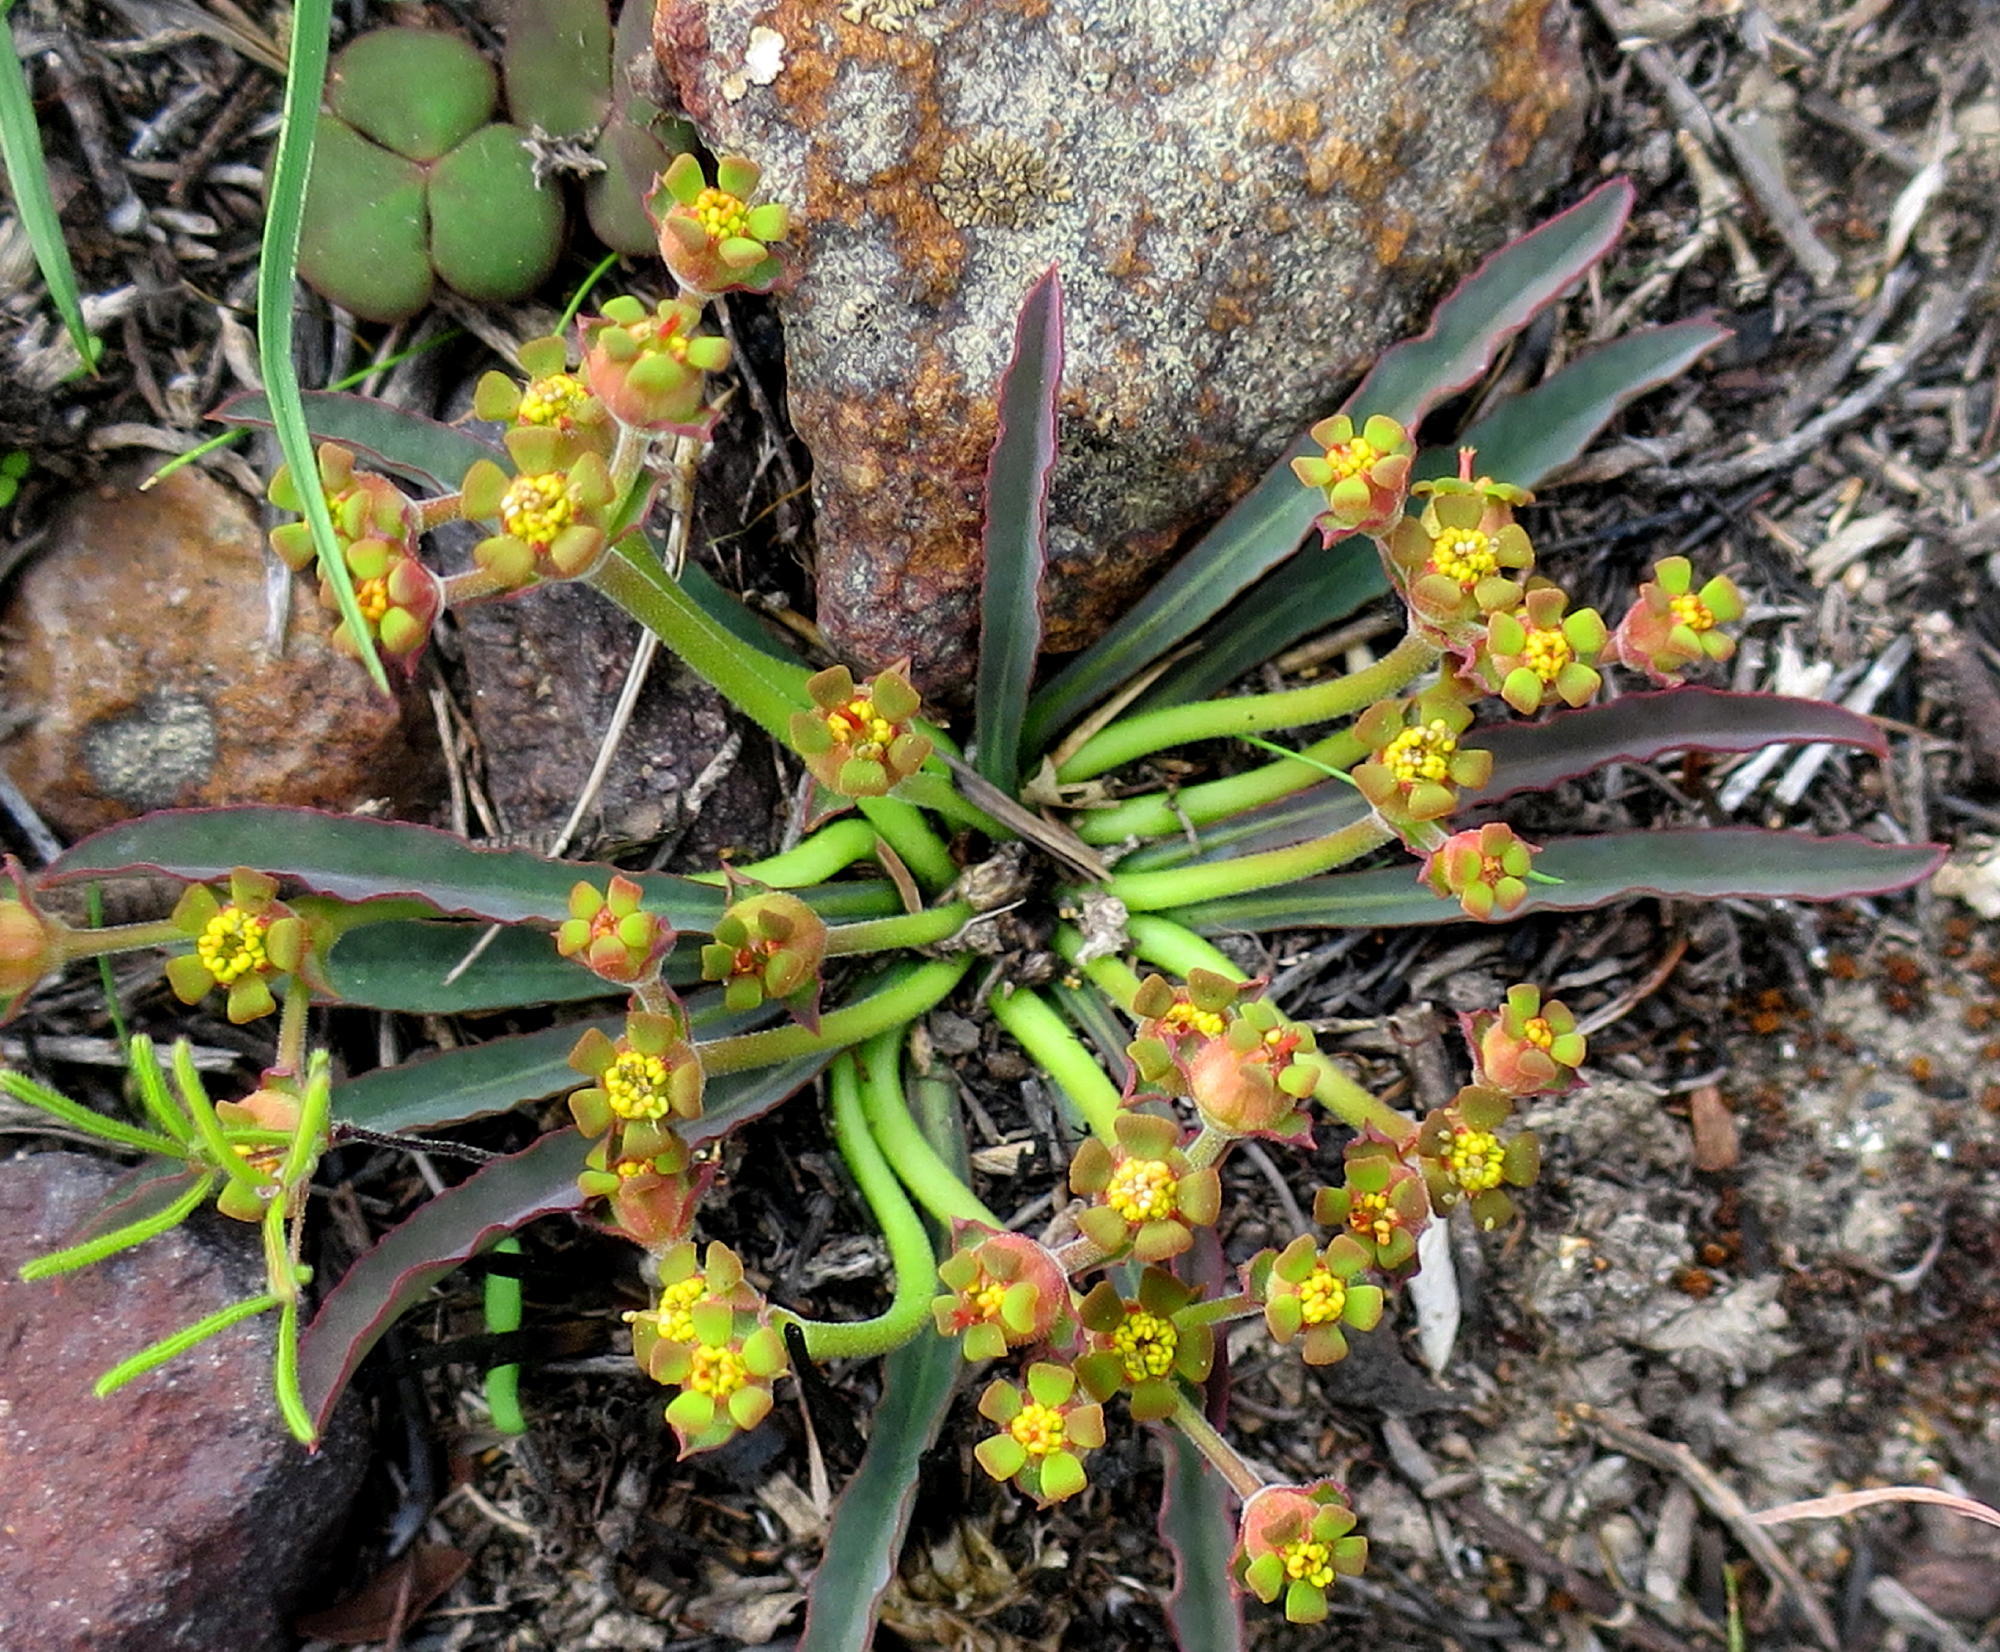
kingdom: Plantae
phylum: Tracheophyta
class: Magnoliopsida
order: Malpighiales
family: Euphorbiaceae
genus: Euphorbia
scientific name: Euphorbia silenifolia
